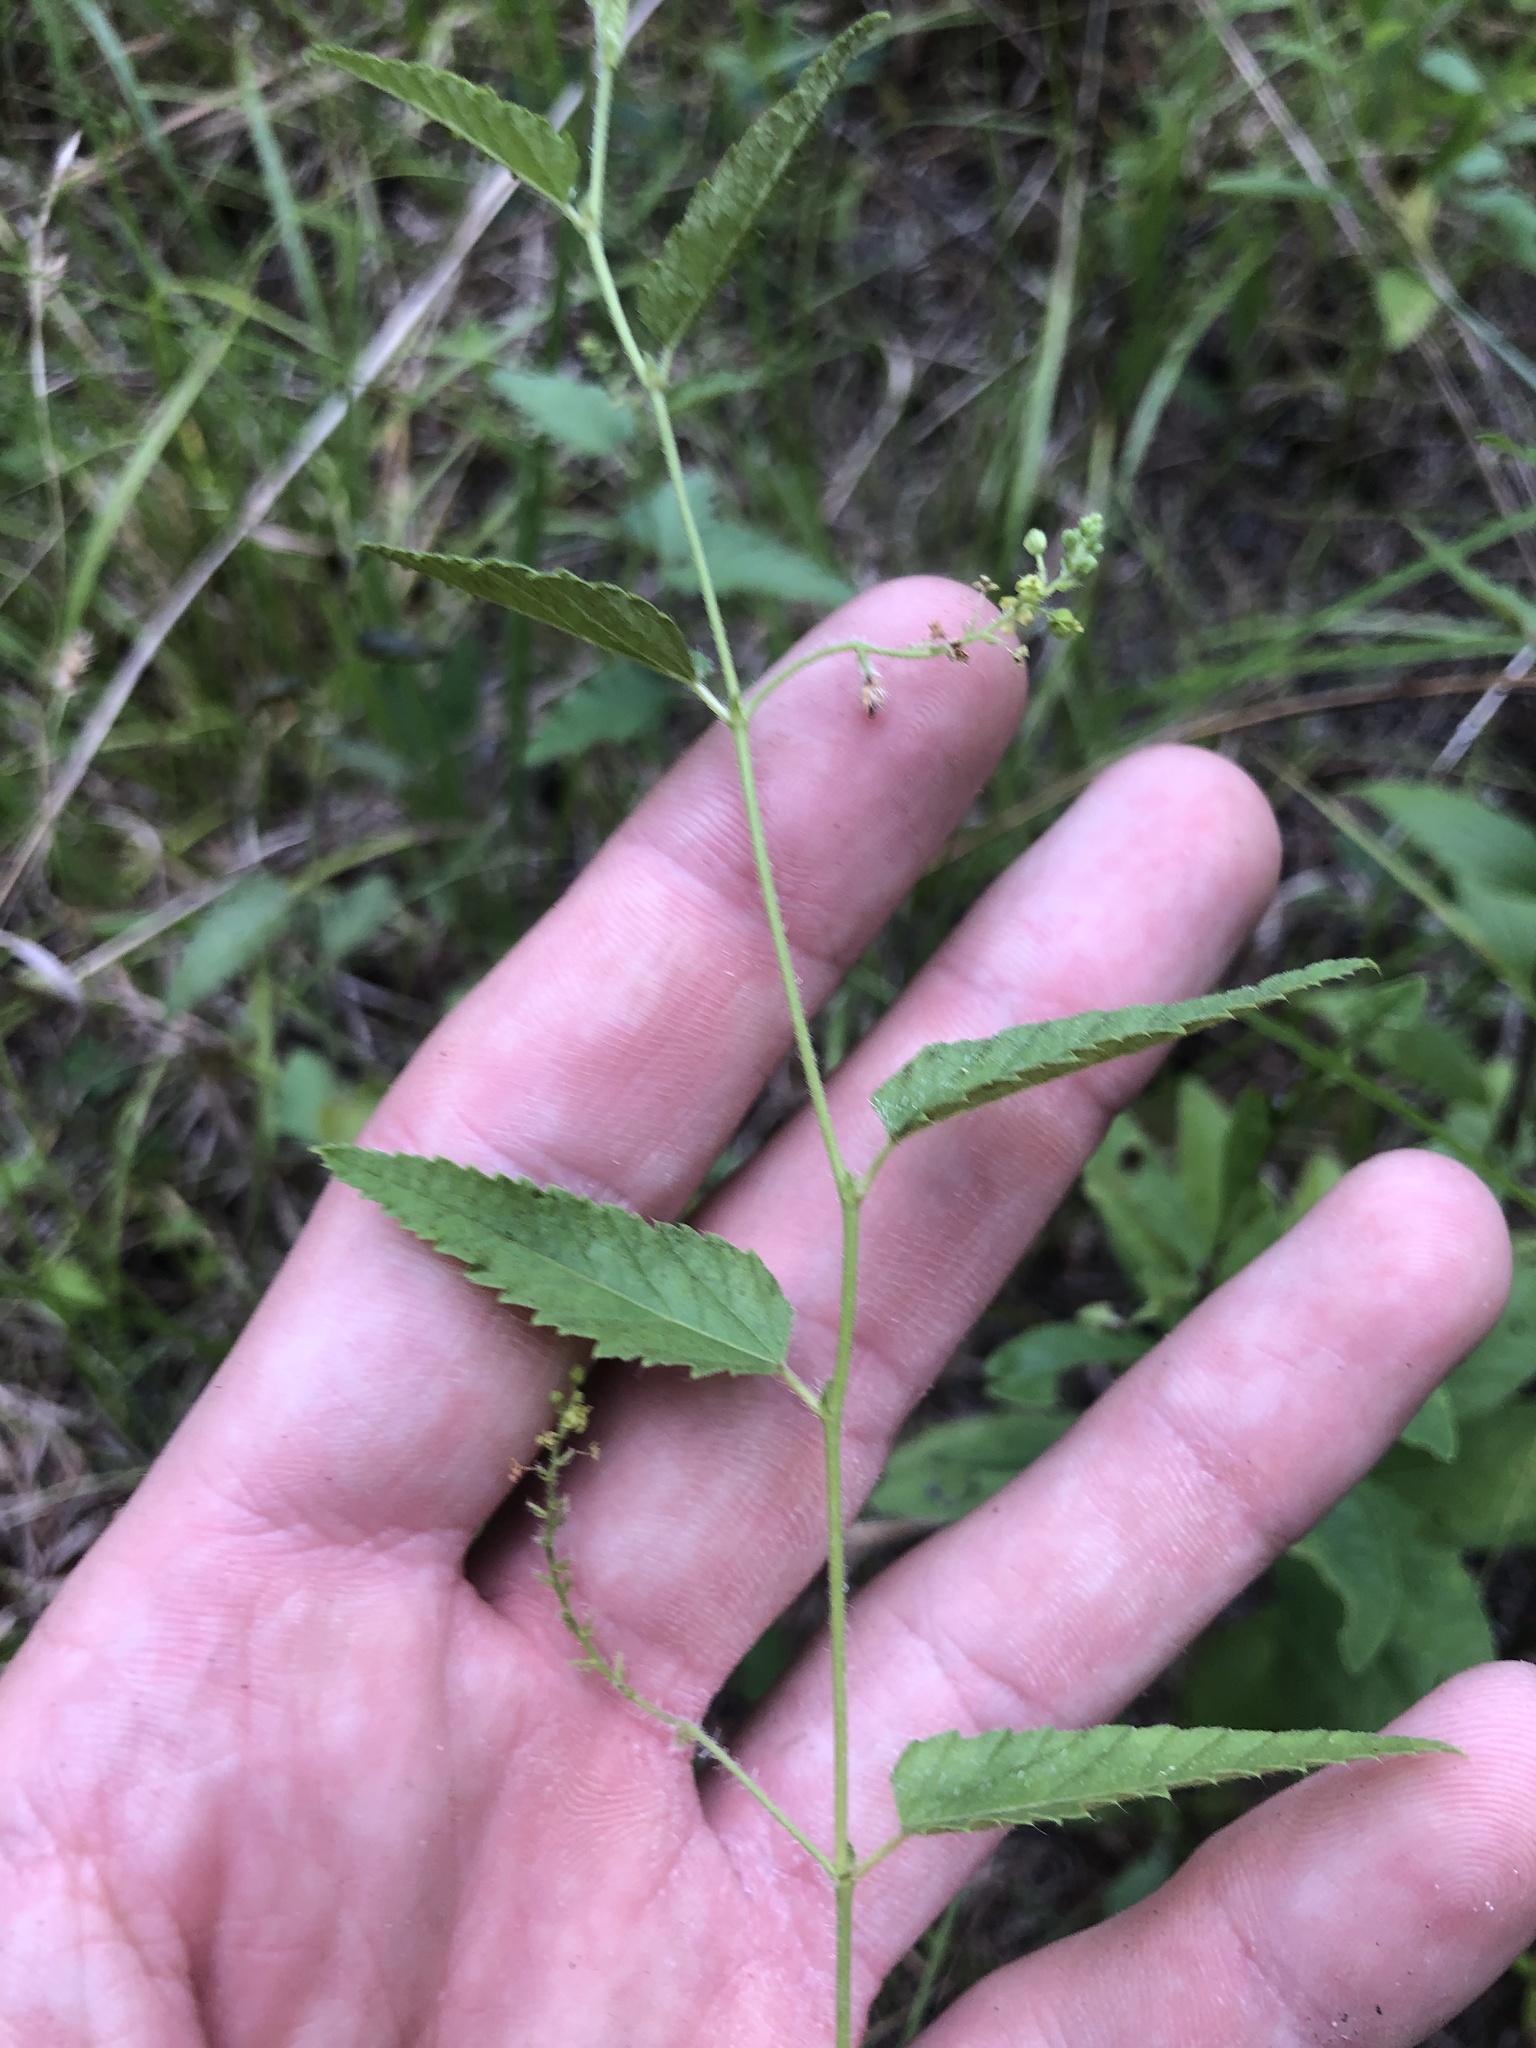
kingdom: Plantae
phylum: Tracheophyta
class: Magnoliopsida
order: Malpighiales
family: Euphorbiaceae
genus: Tragia
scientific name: Tragia urticifolia
